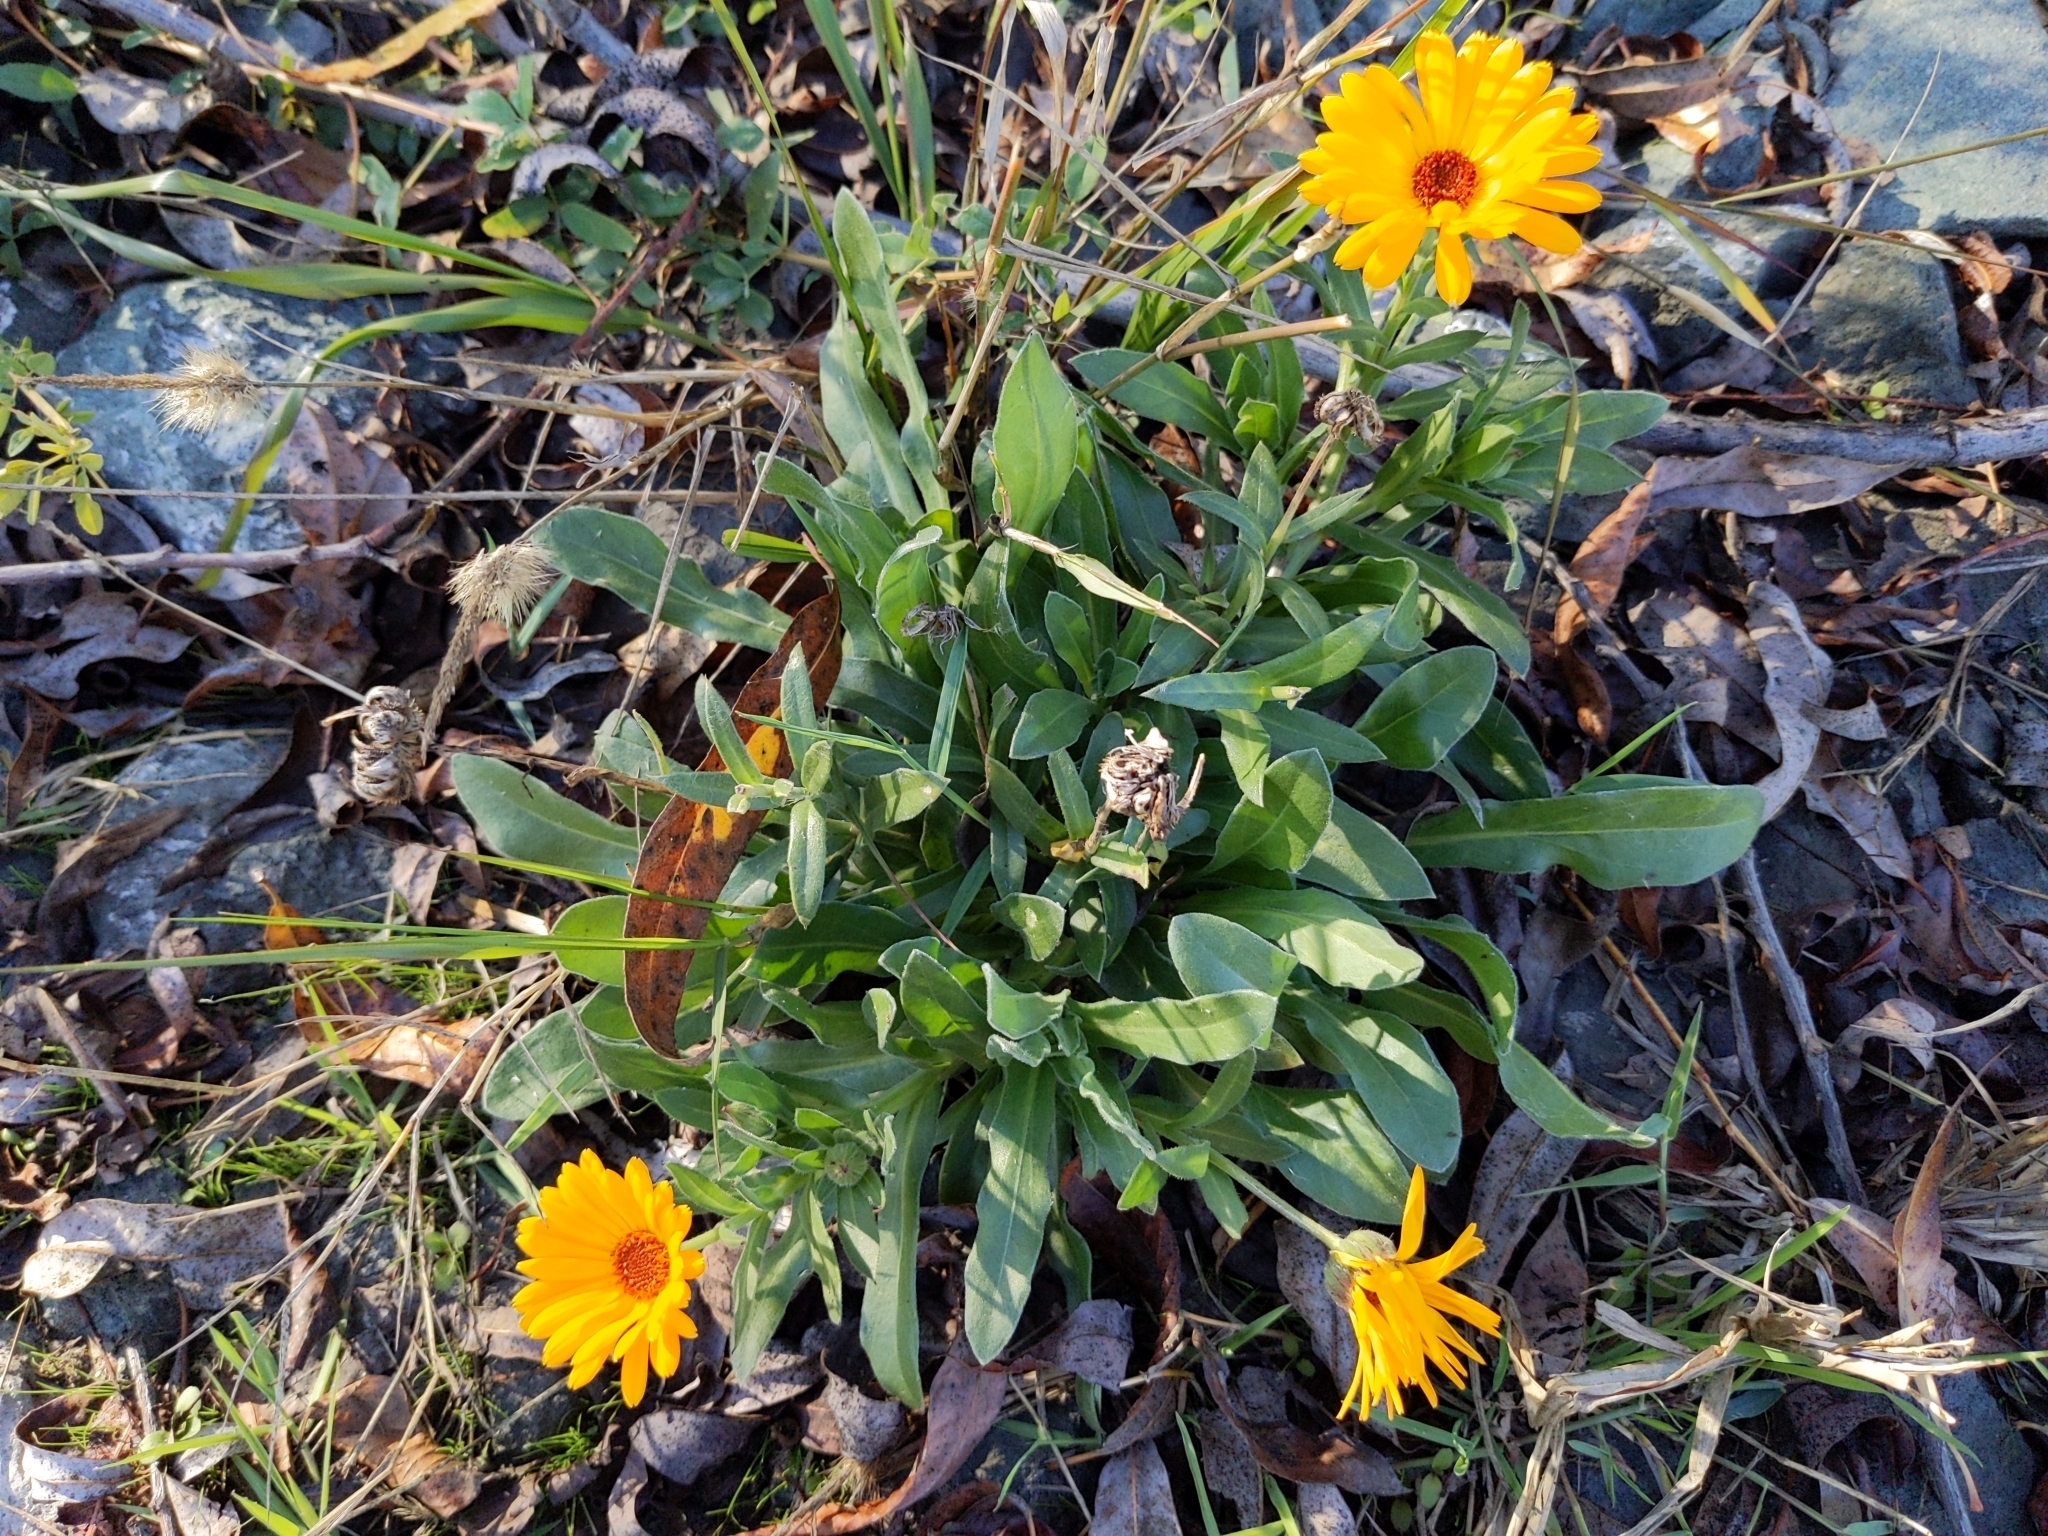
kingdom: Plantae
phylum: Tracheophyta
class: Magnoliopsida
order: Asterales
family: Asteraceae
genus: Calendula
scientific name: Calendula officinalis
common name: Pot marigold
